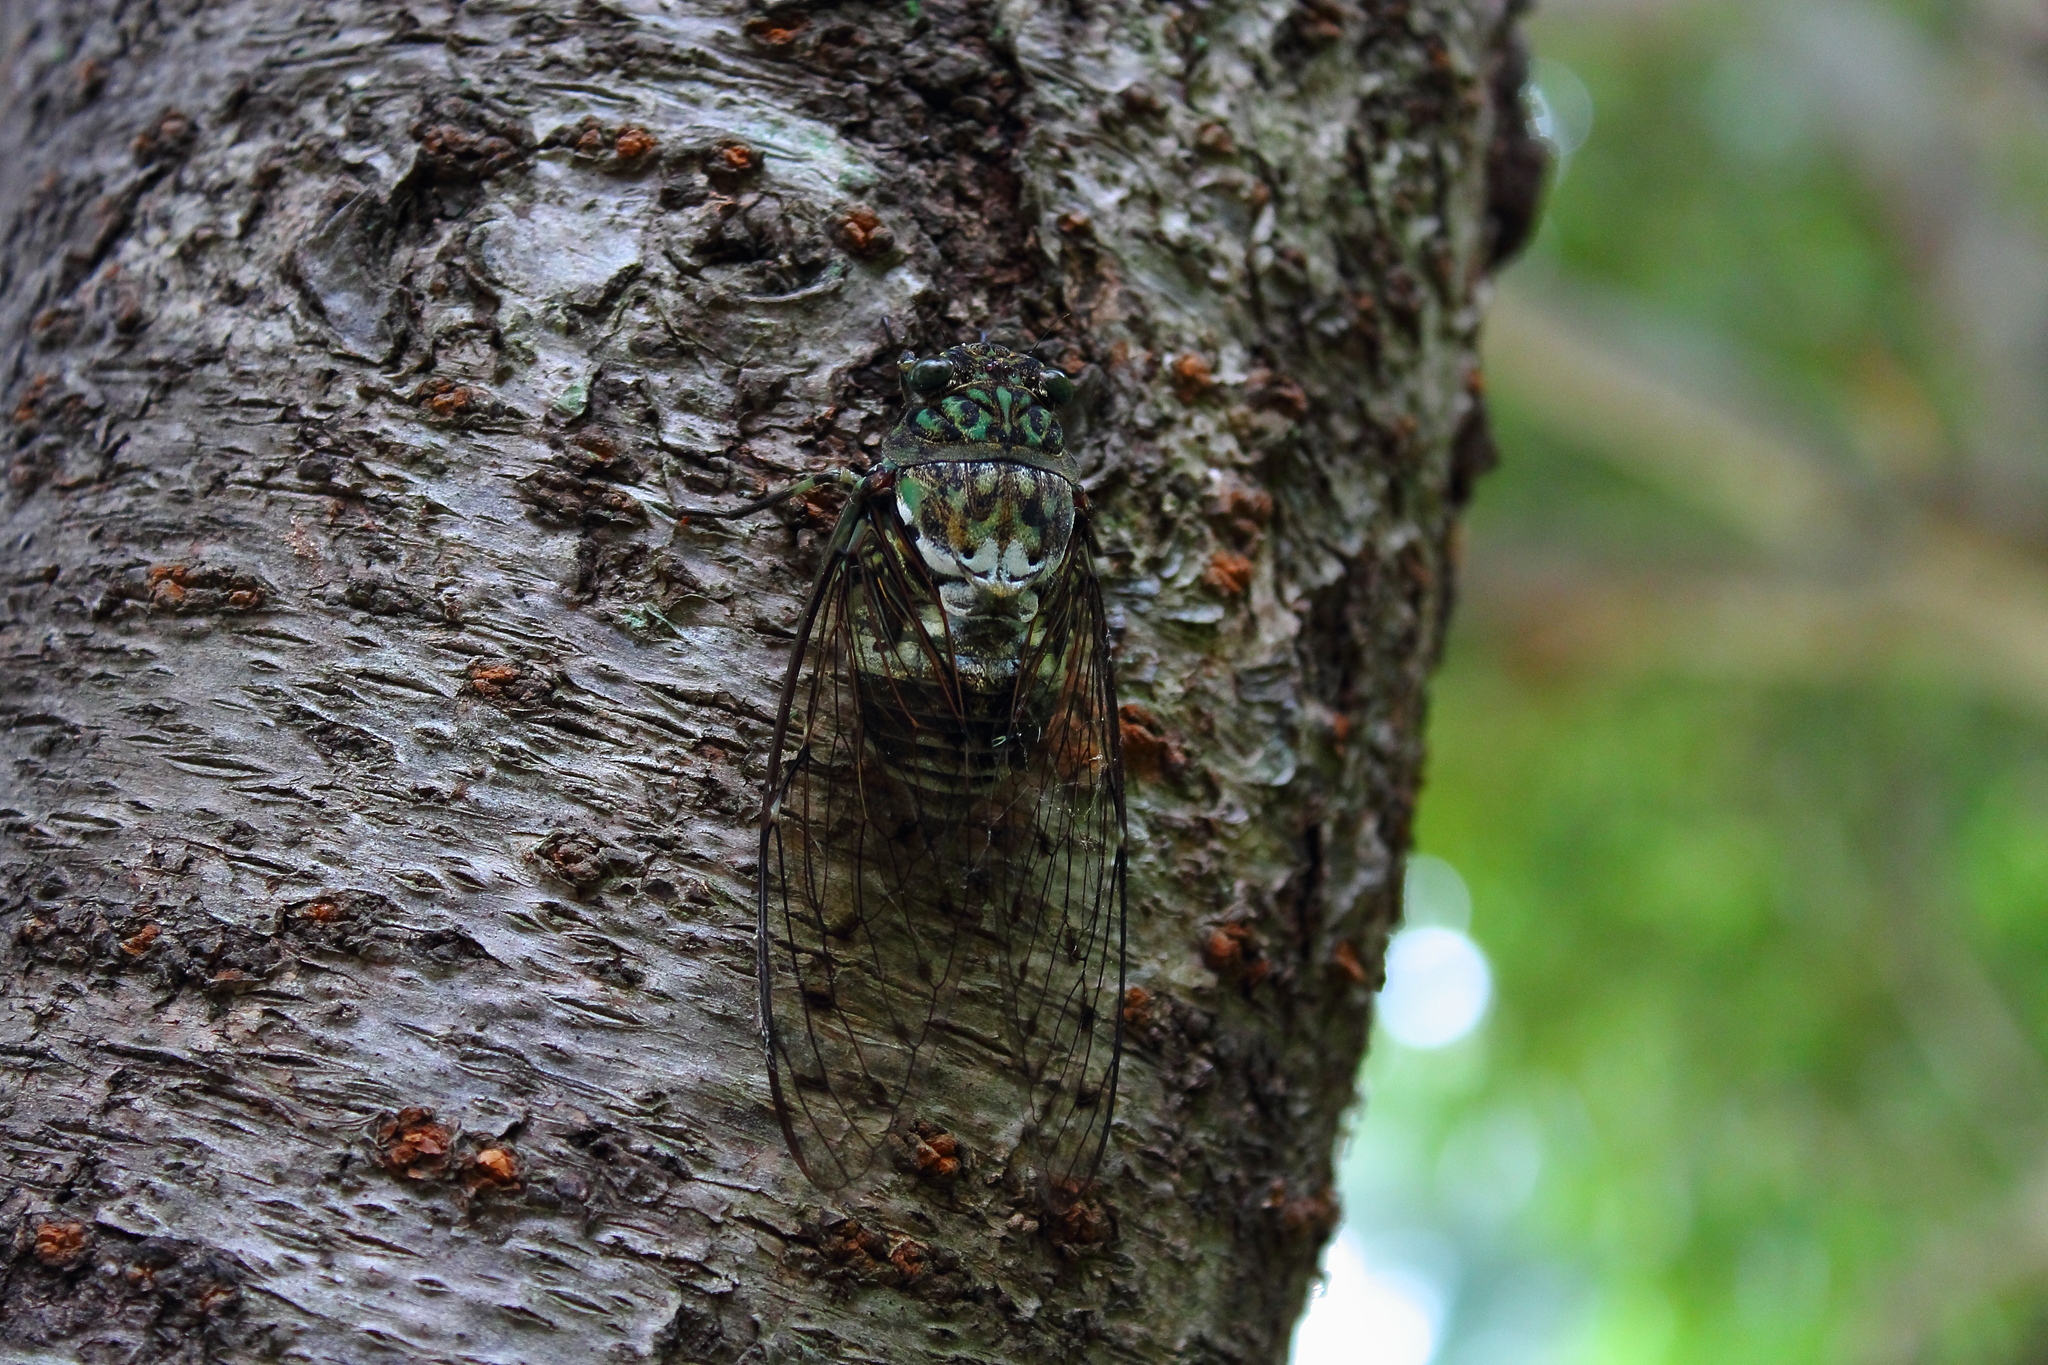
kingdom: Animalia
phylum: Arthropoda
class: Insecta
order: Hemiptera
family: Cicadidae
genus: Hyalessa
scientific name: Hyalessa maculaticollis
